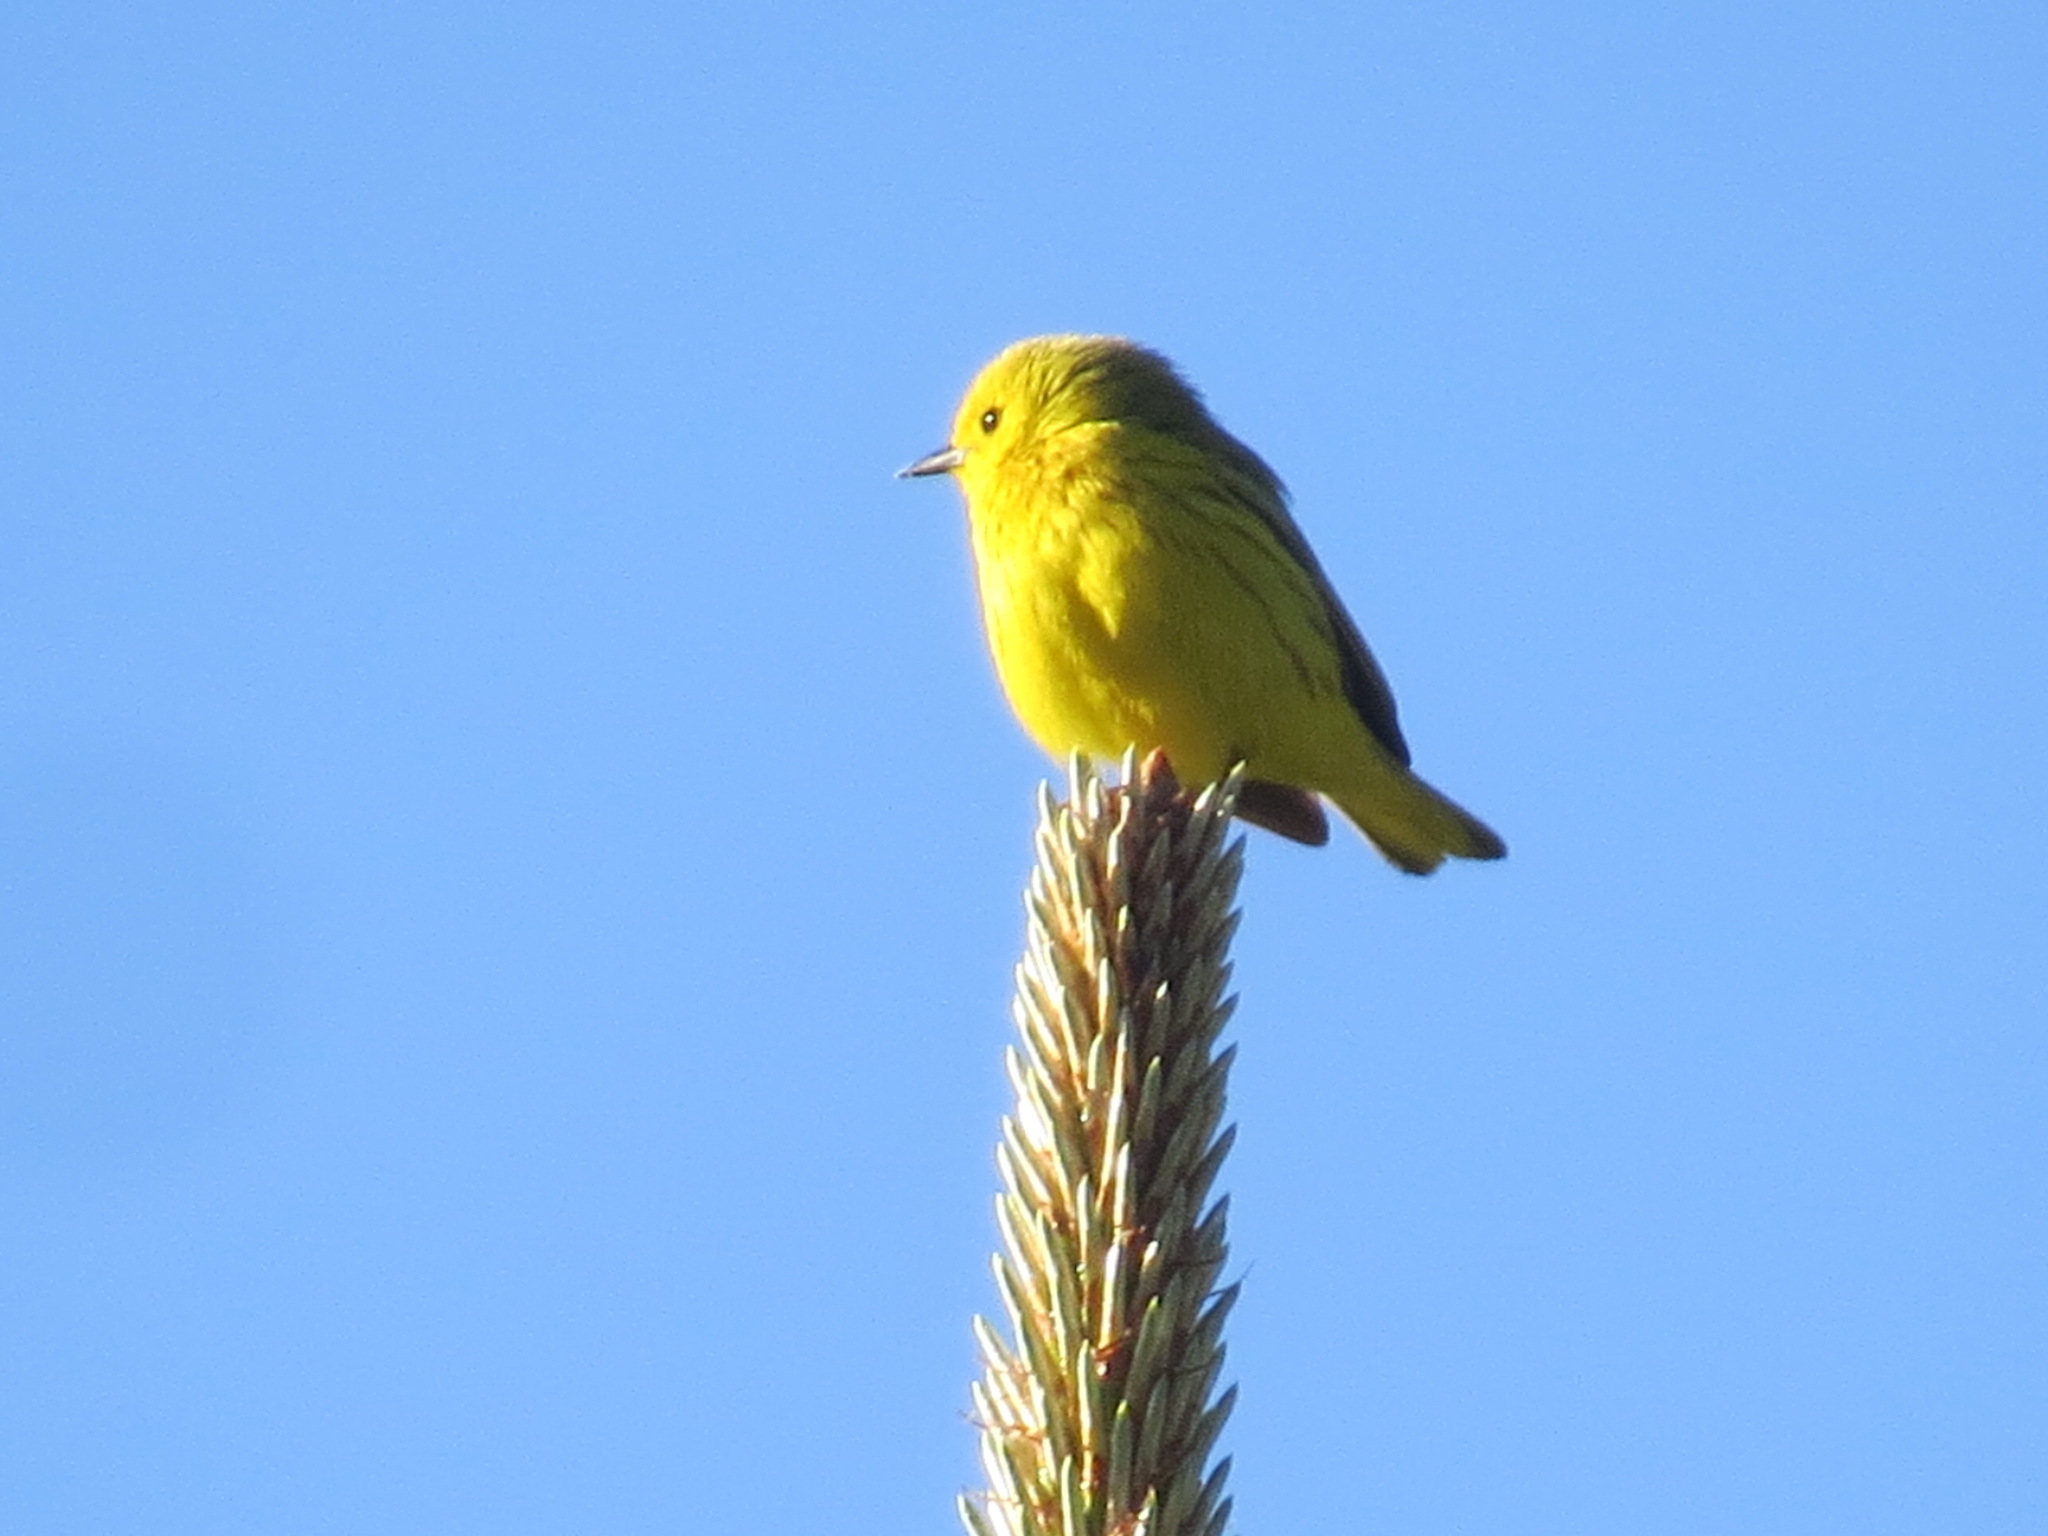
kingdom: Animalia
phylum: Chordata
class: Aves
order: Passeriformes
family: Parulidae
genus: Setophaga
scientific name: Setophaga petechia
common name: Yellow warbler
